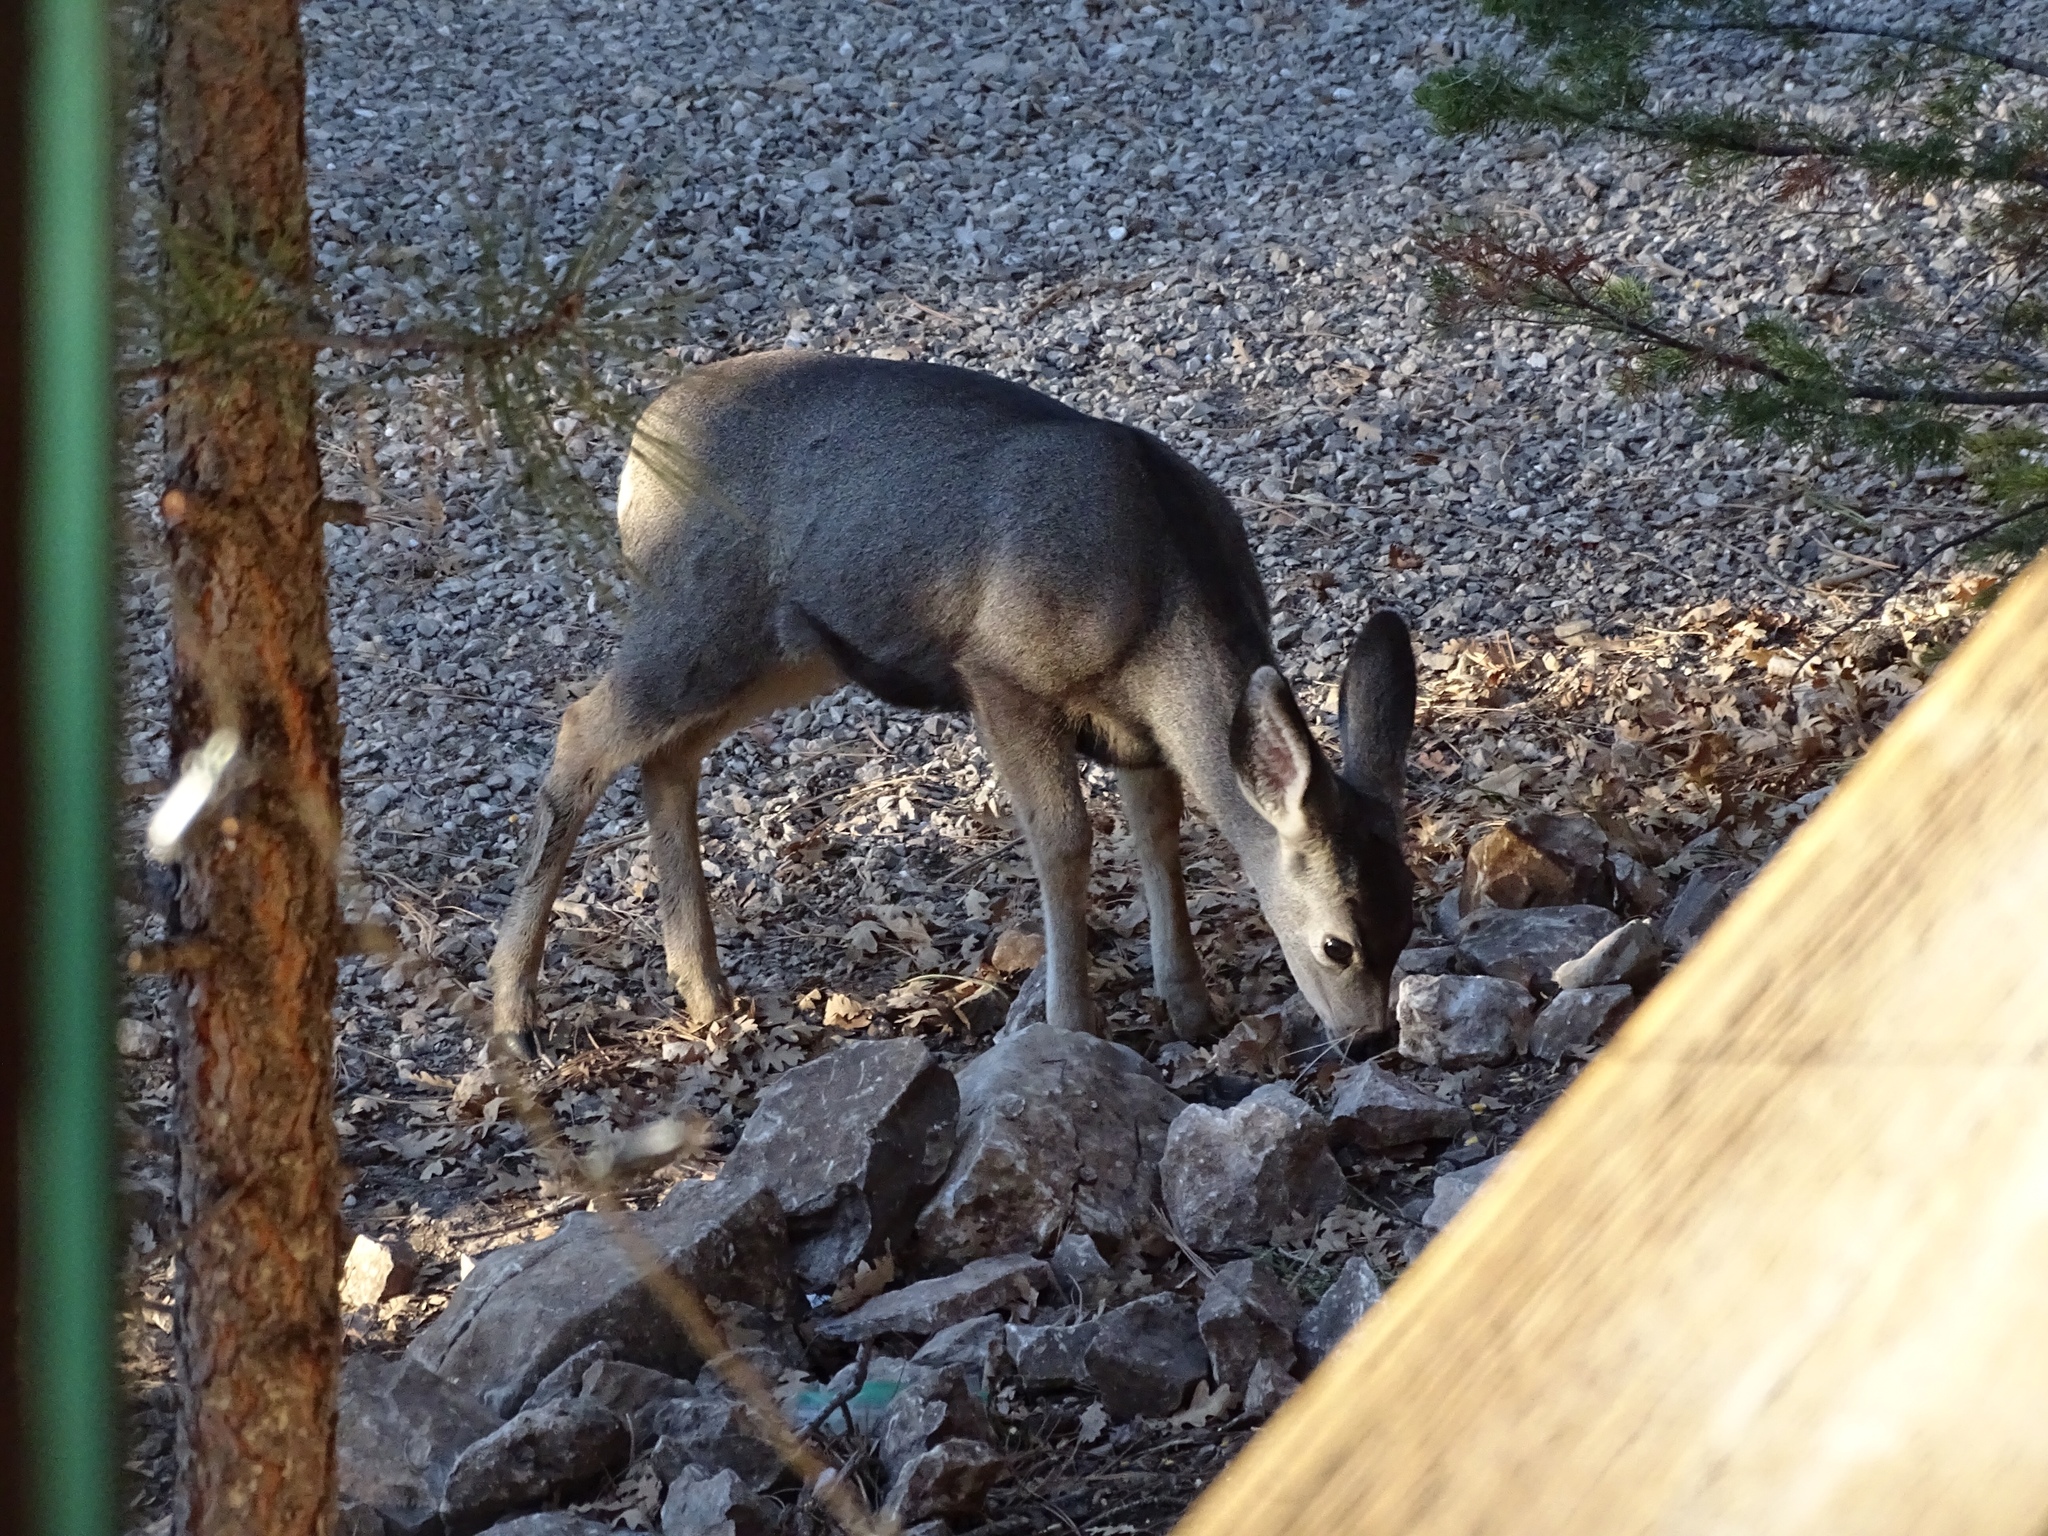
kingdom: Animalia
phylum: Chordata
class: Mammalia
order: Artiodactyla
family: Cervidae
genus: Odocoileus
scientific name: Odocoileus hemionus
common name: Mule deer
